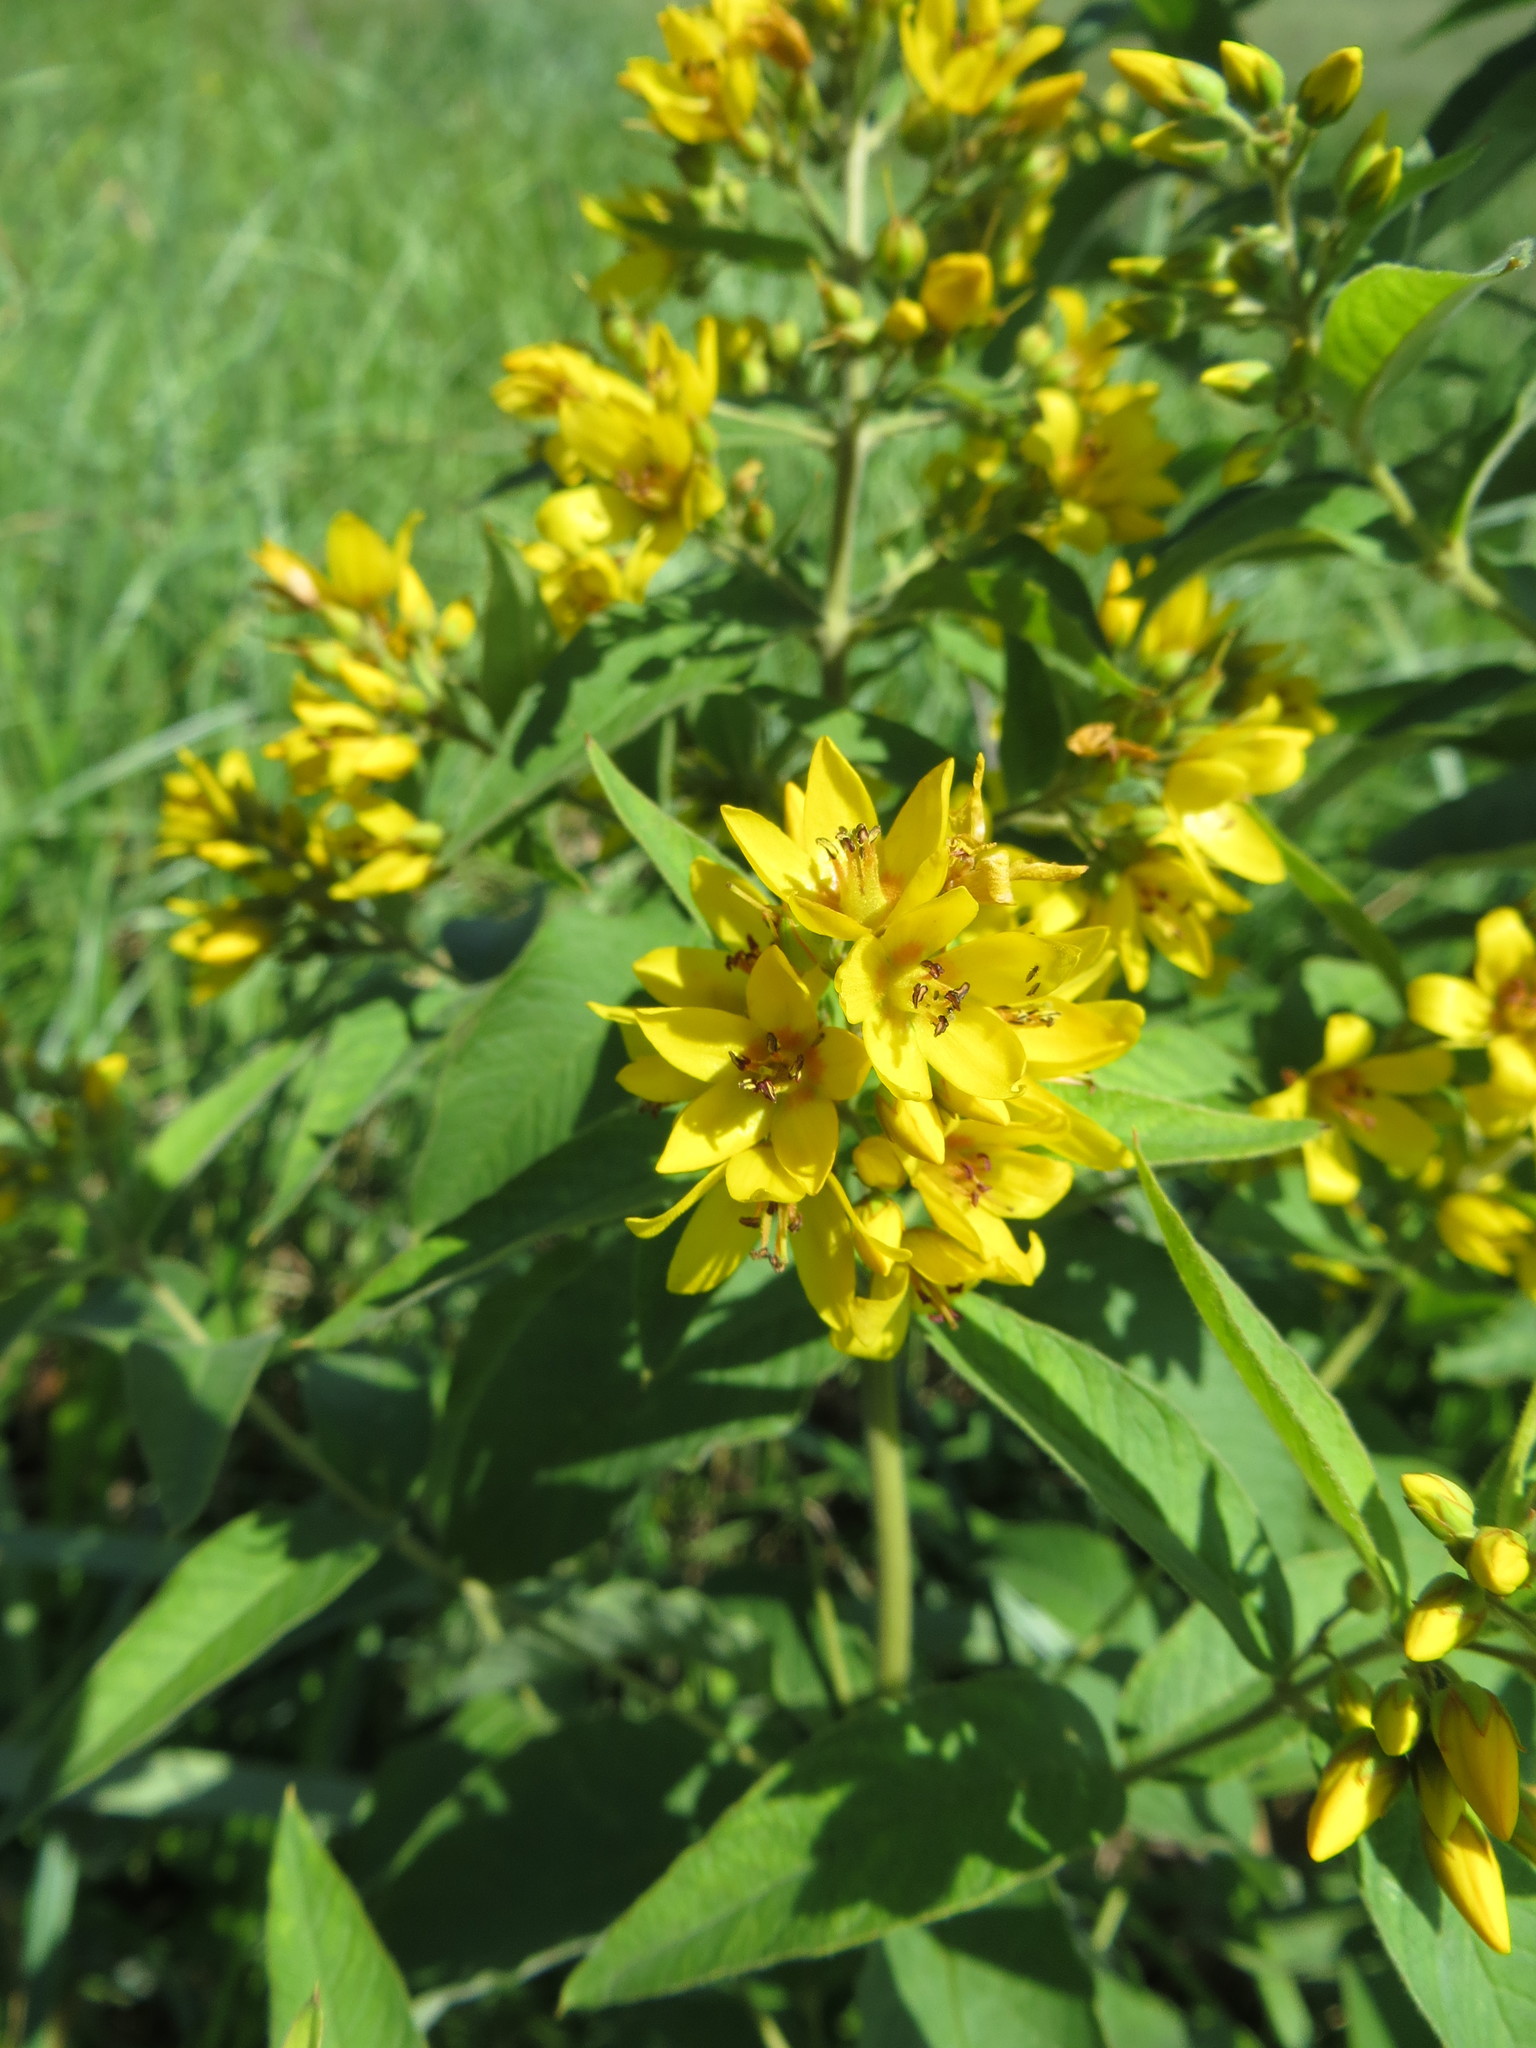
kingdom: Plantae
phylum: Tracheophyta
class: Magnoliopsida
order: Ericales
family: Primulaceae
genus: Lysimachia
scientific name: Lysimachia vulgaris
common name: Yellow loosestrife
